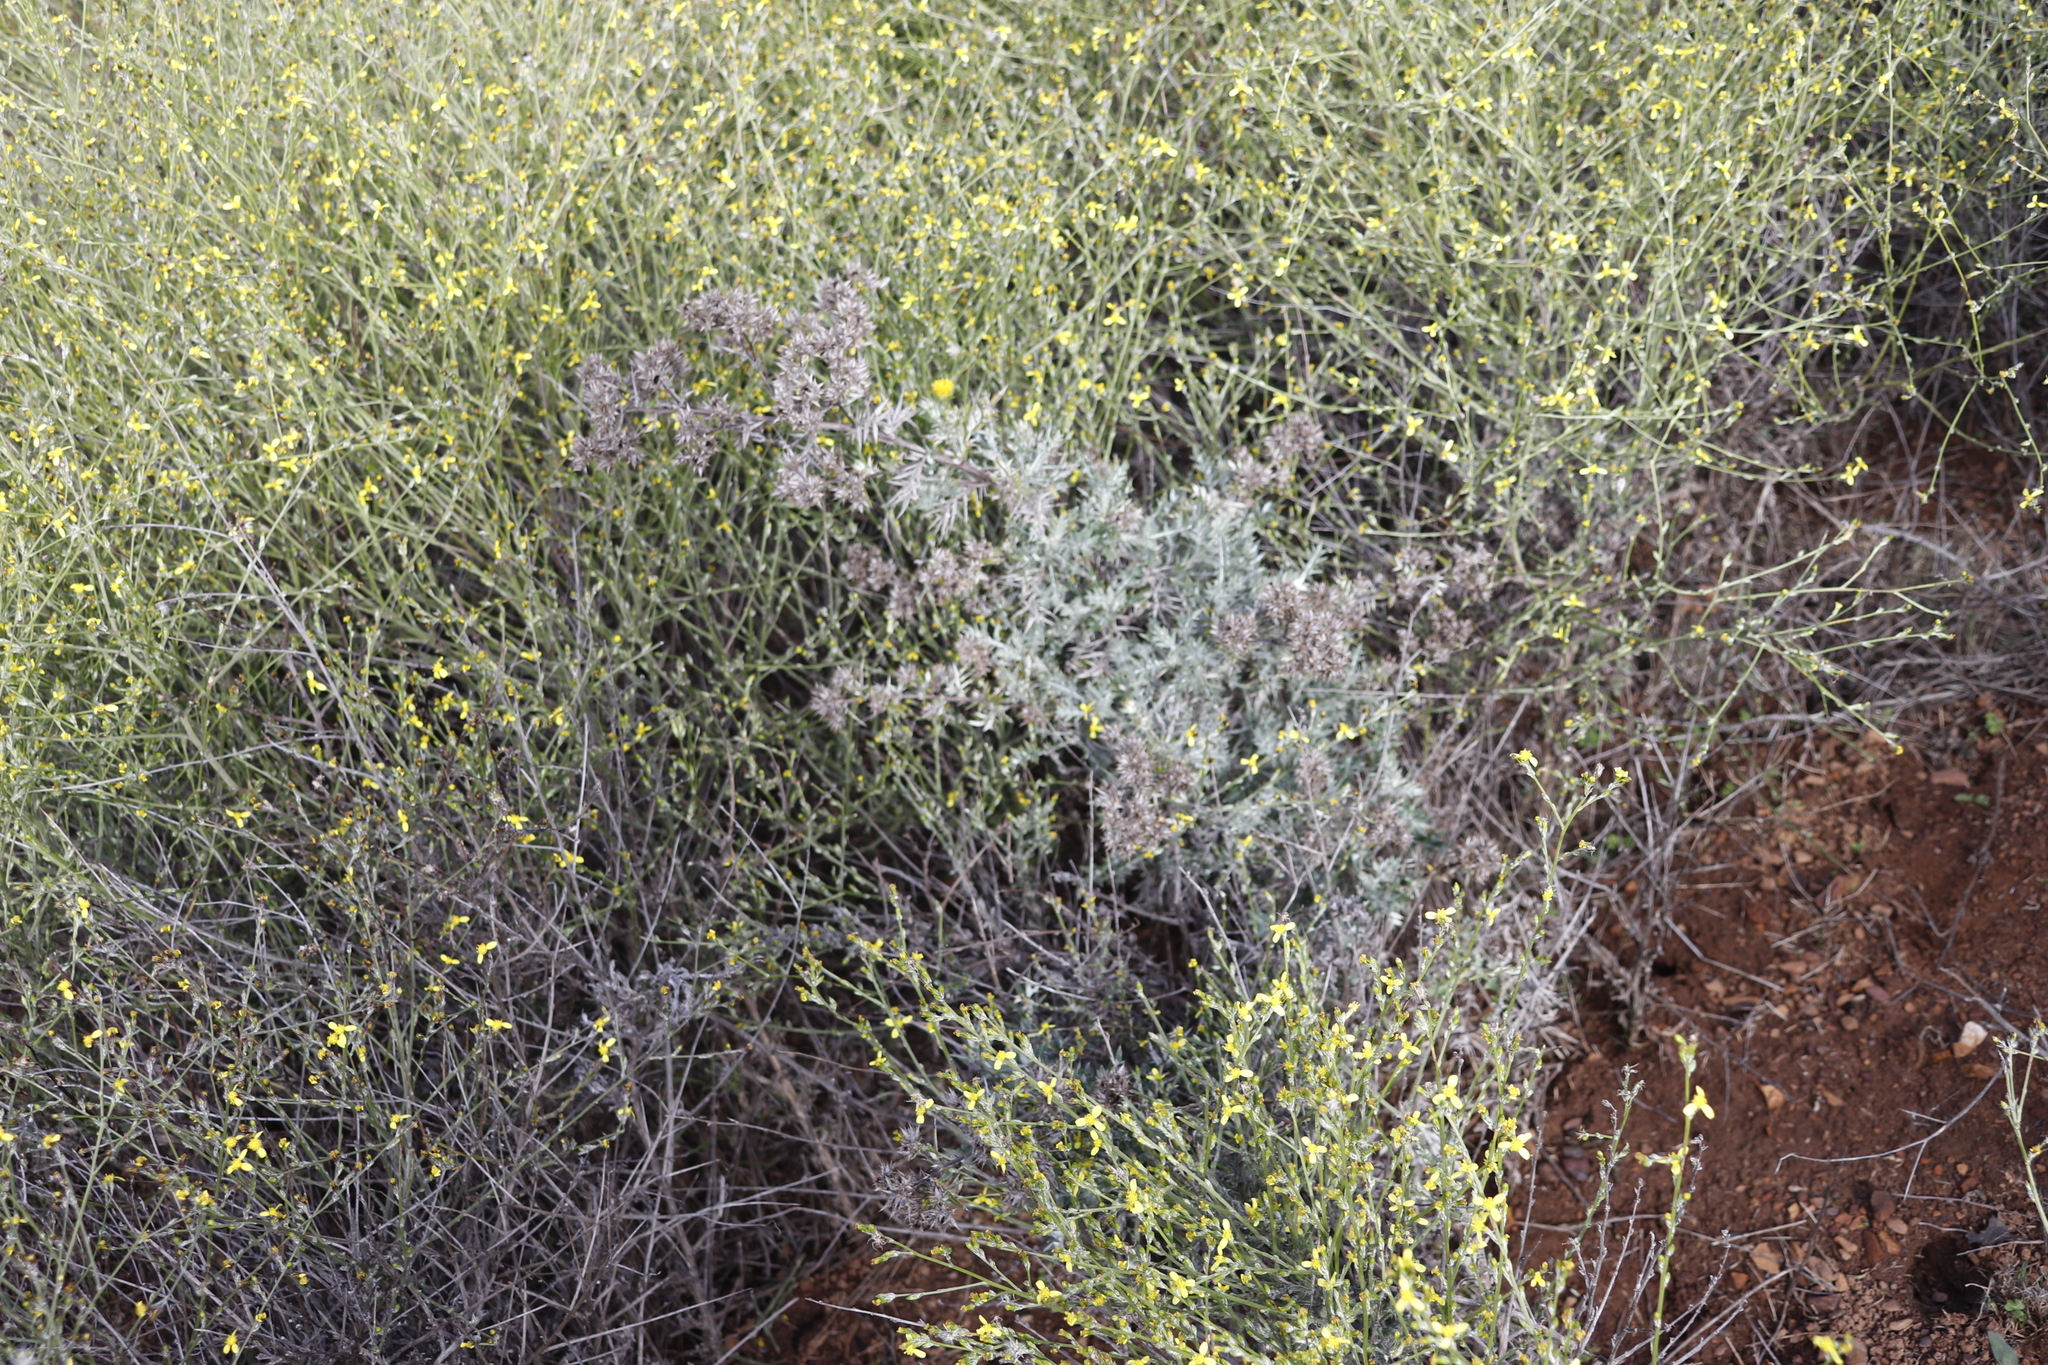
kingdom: Plantae
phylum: Tracheophyta
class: Magnoliopsida
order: Asterales
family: Asteraceae
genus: Senecio
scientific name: Senecio pubigerus
